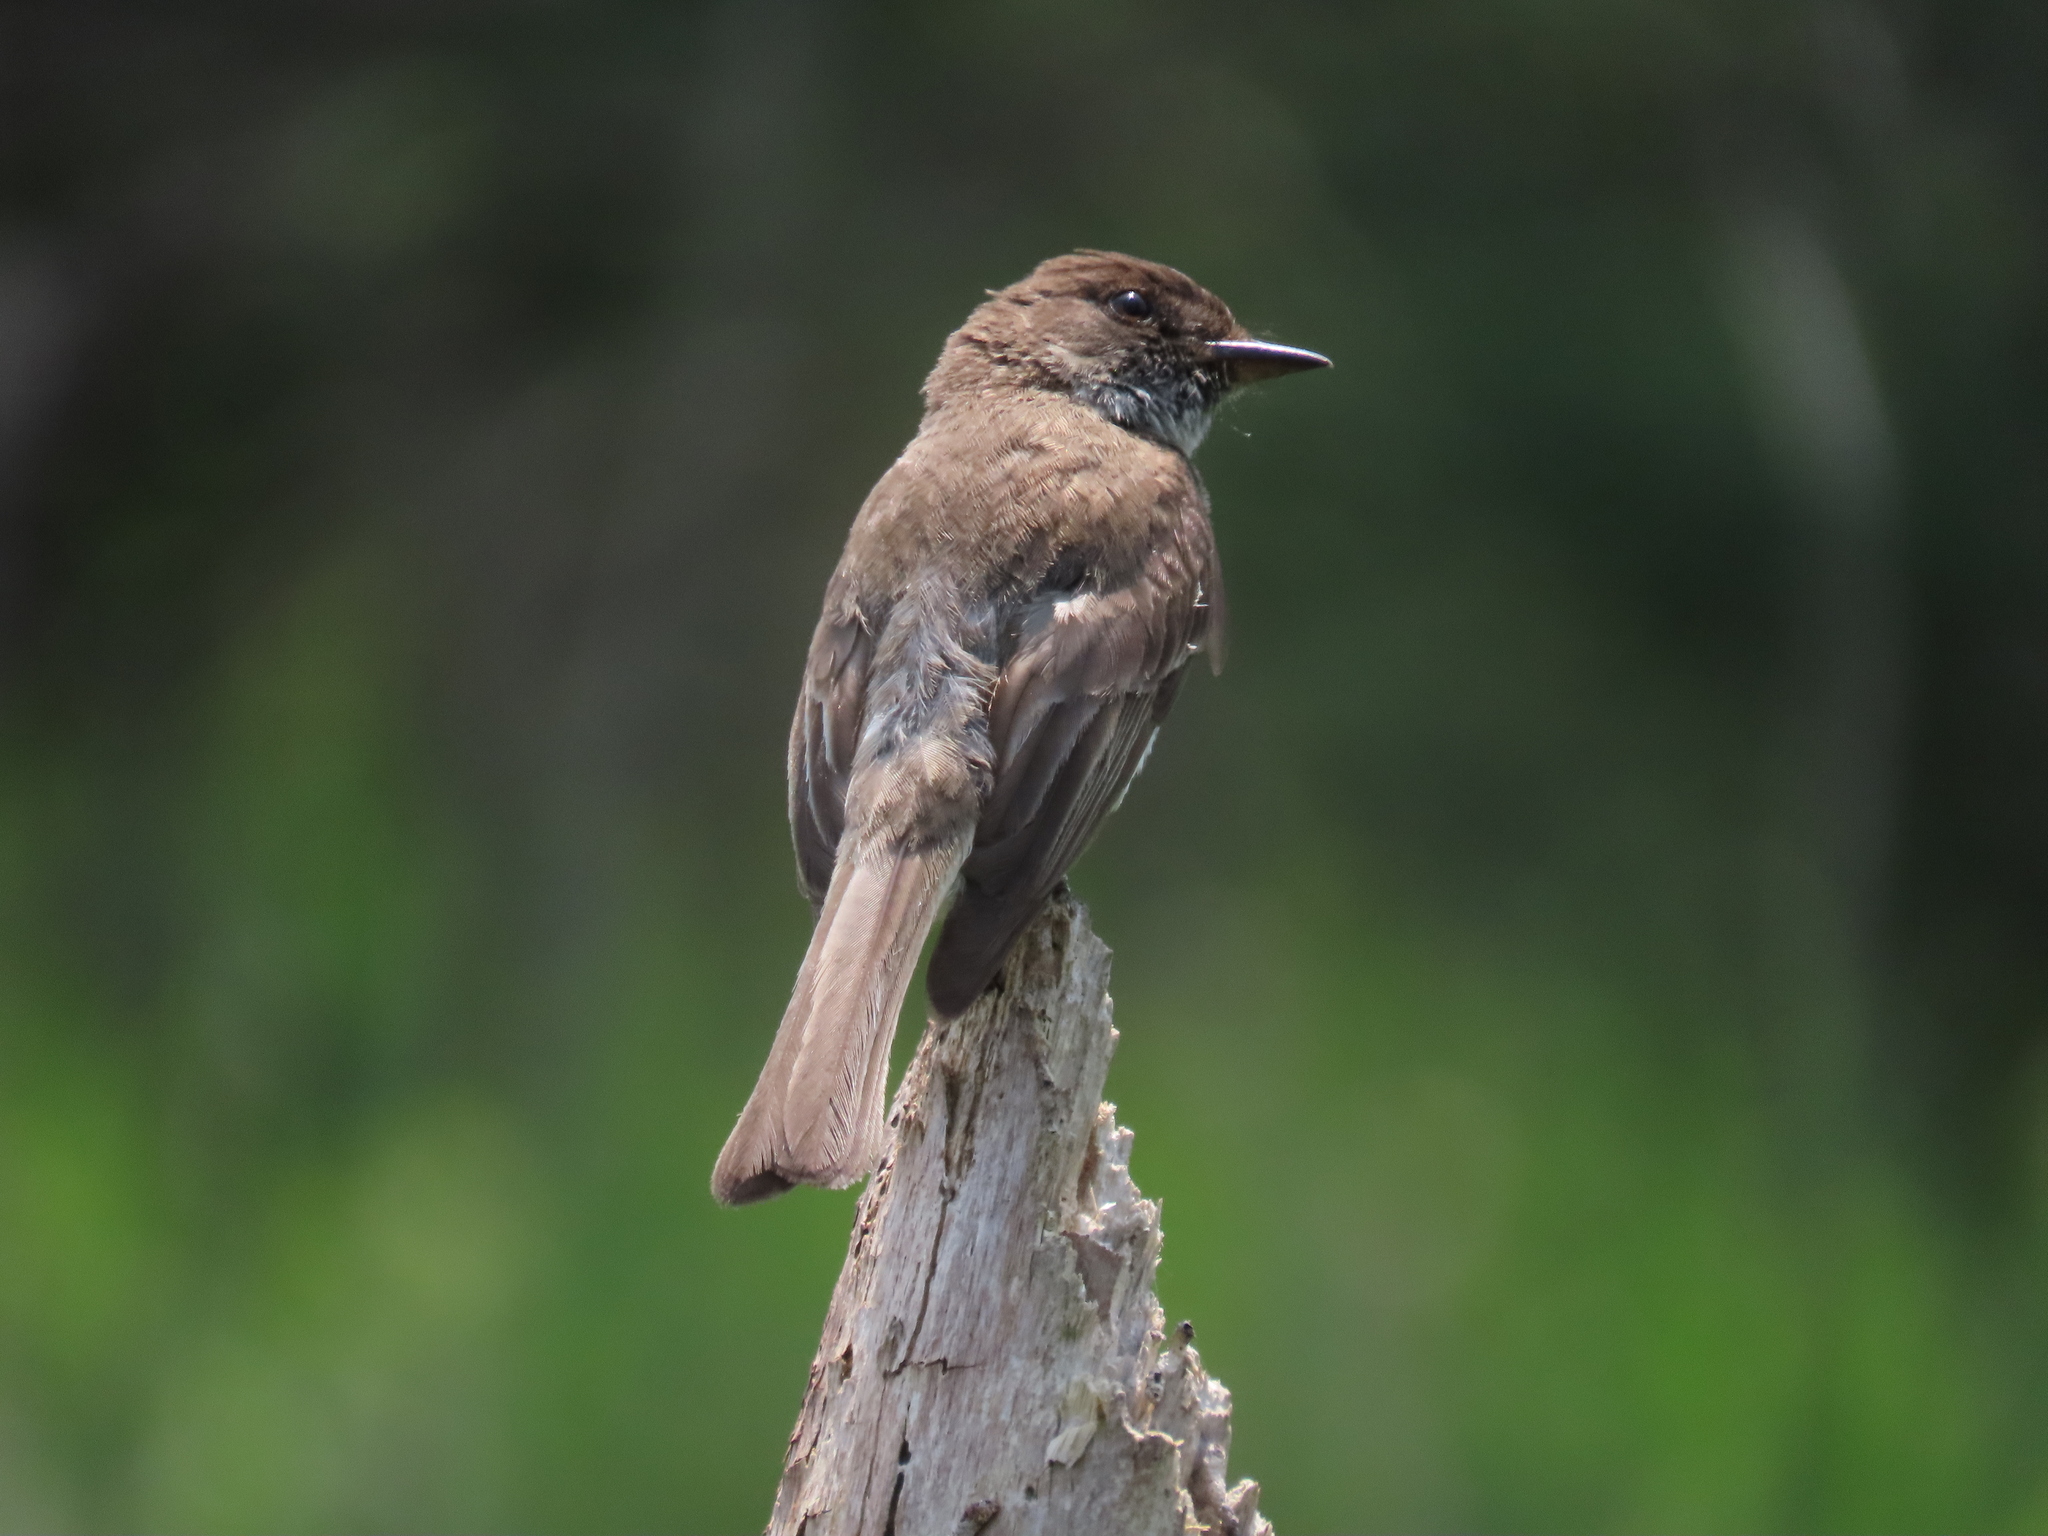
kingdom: Animalia
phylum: Chordata
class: Aves
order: Passeriformes
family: Tyrannidae
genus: Sayornis
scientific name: Sayornis phoebe
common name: Eastern phoebe
